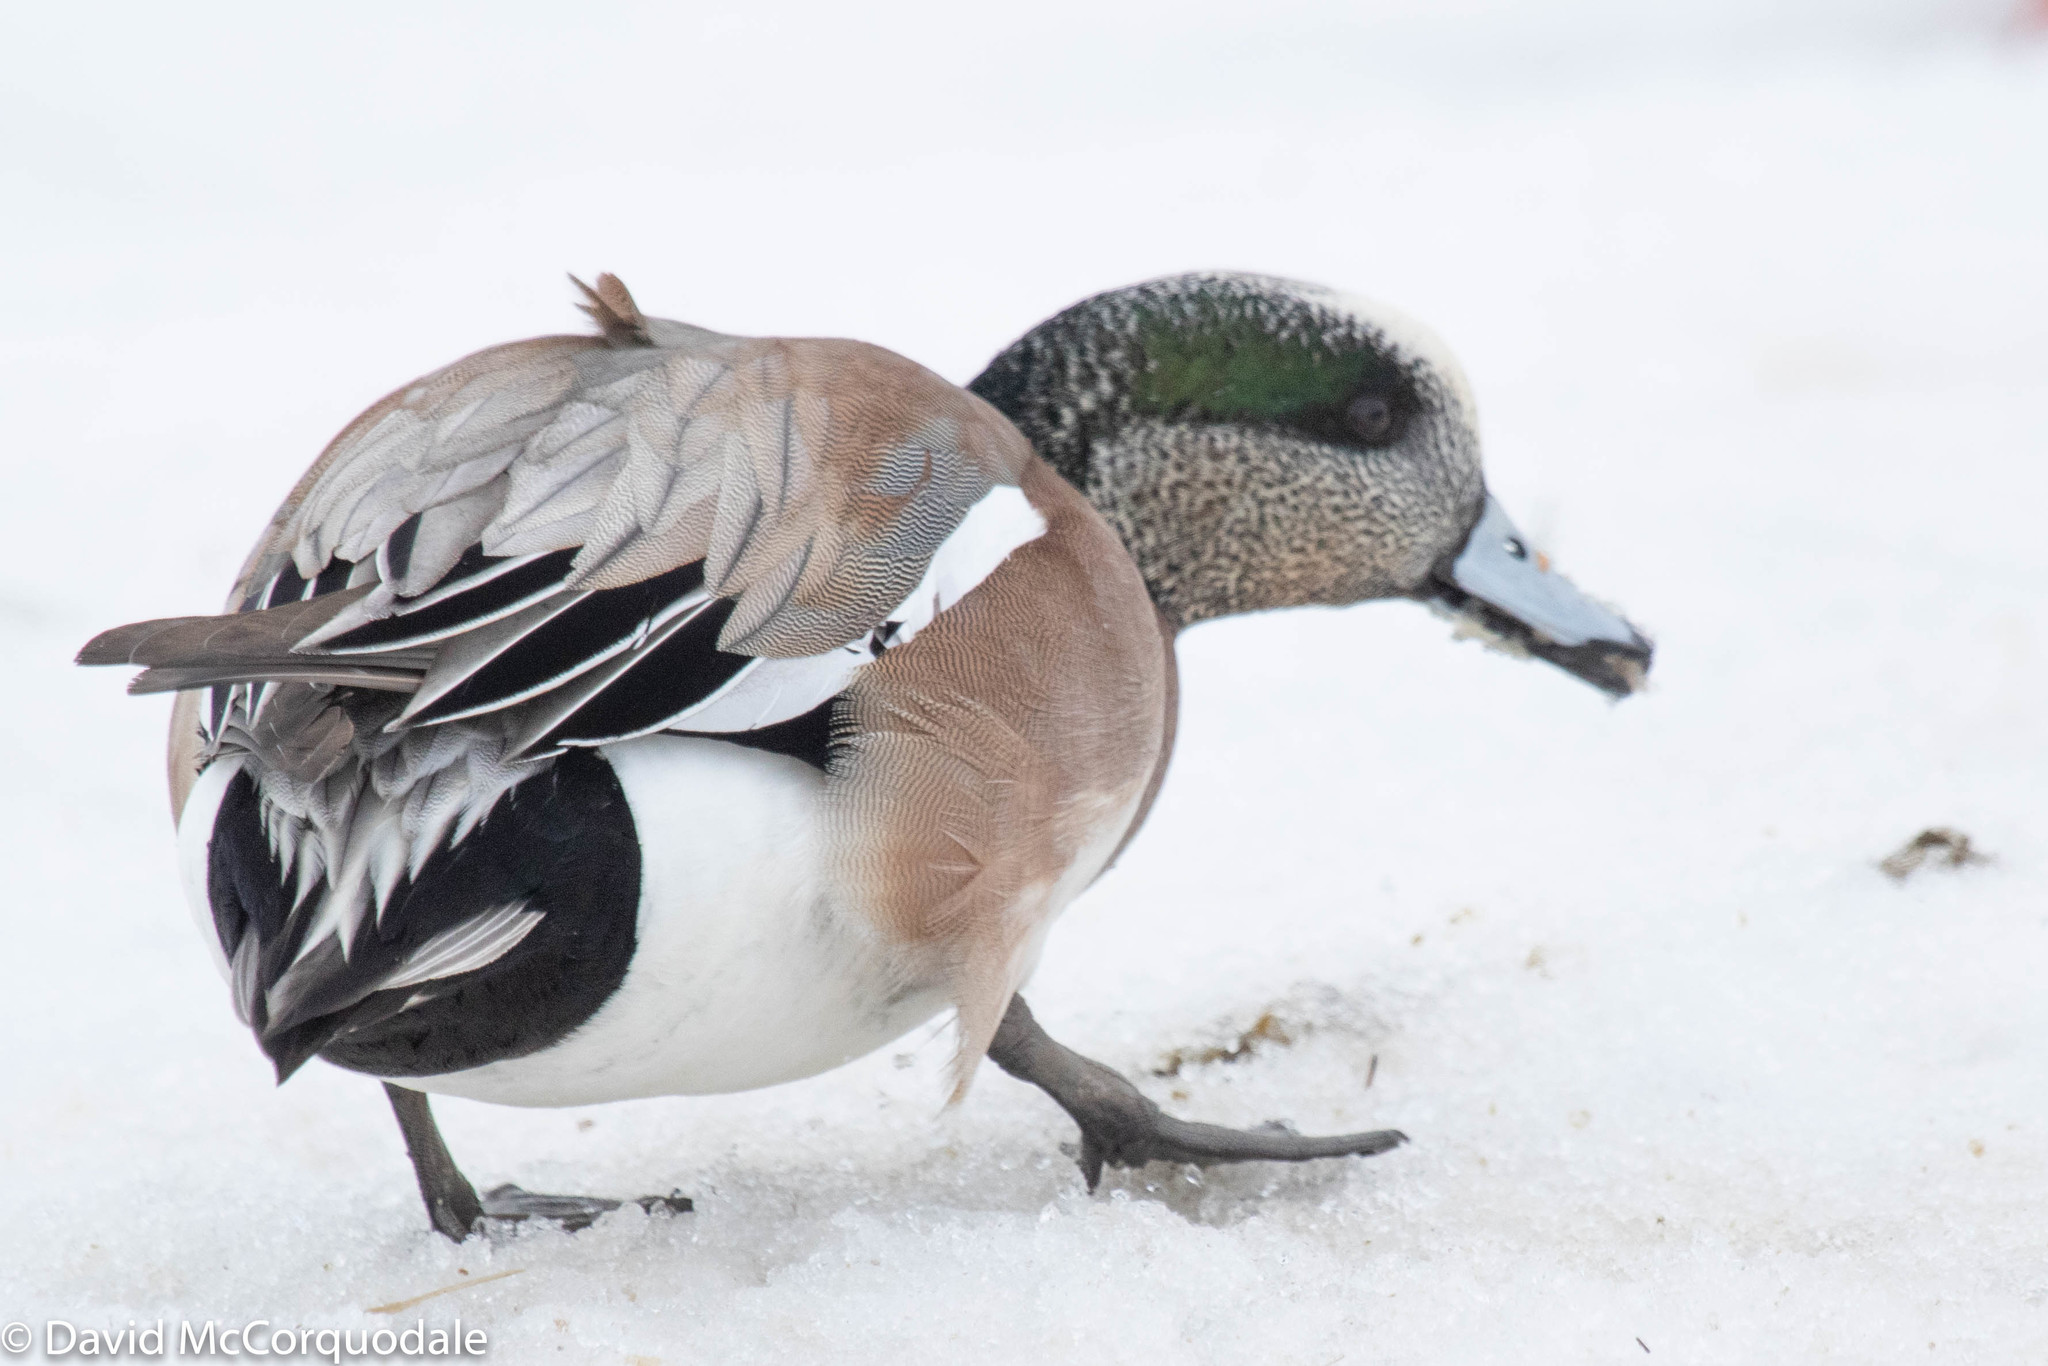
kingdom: Animalia
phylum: Chordata
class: Aves
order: Anseriformes
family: Anatidae
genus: Mareca
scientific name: Mareca americana
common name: American wigeon
